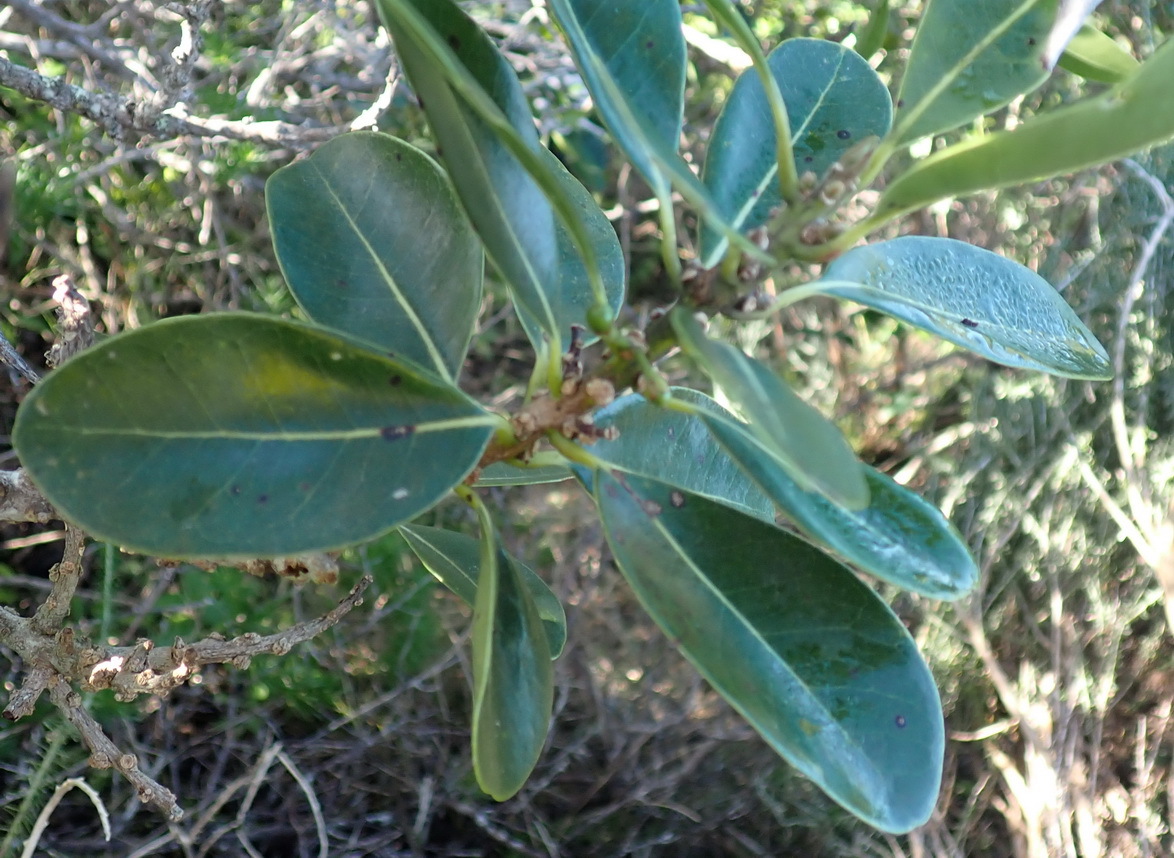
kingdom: Plantae
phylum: Tracheophyta
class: Magnoliopsida
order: Ericales
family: Sapotaceae
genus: Sideroxylon
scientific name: Sideroxylon inerme
